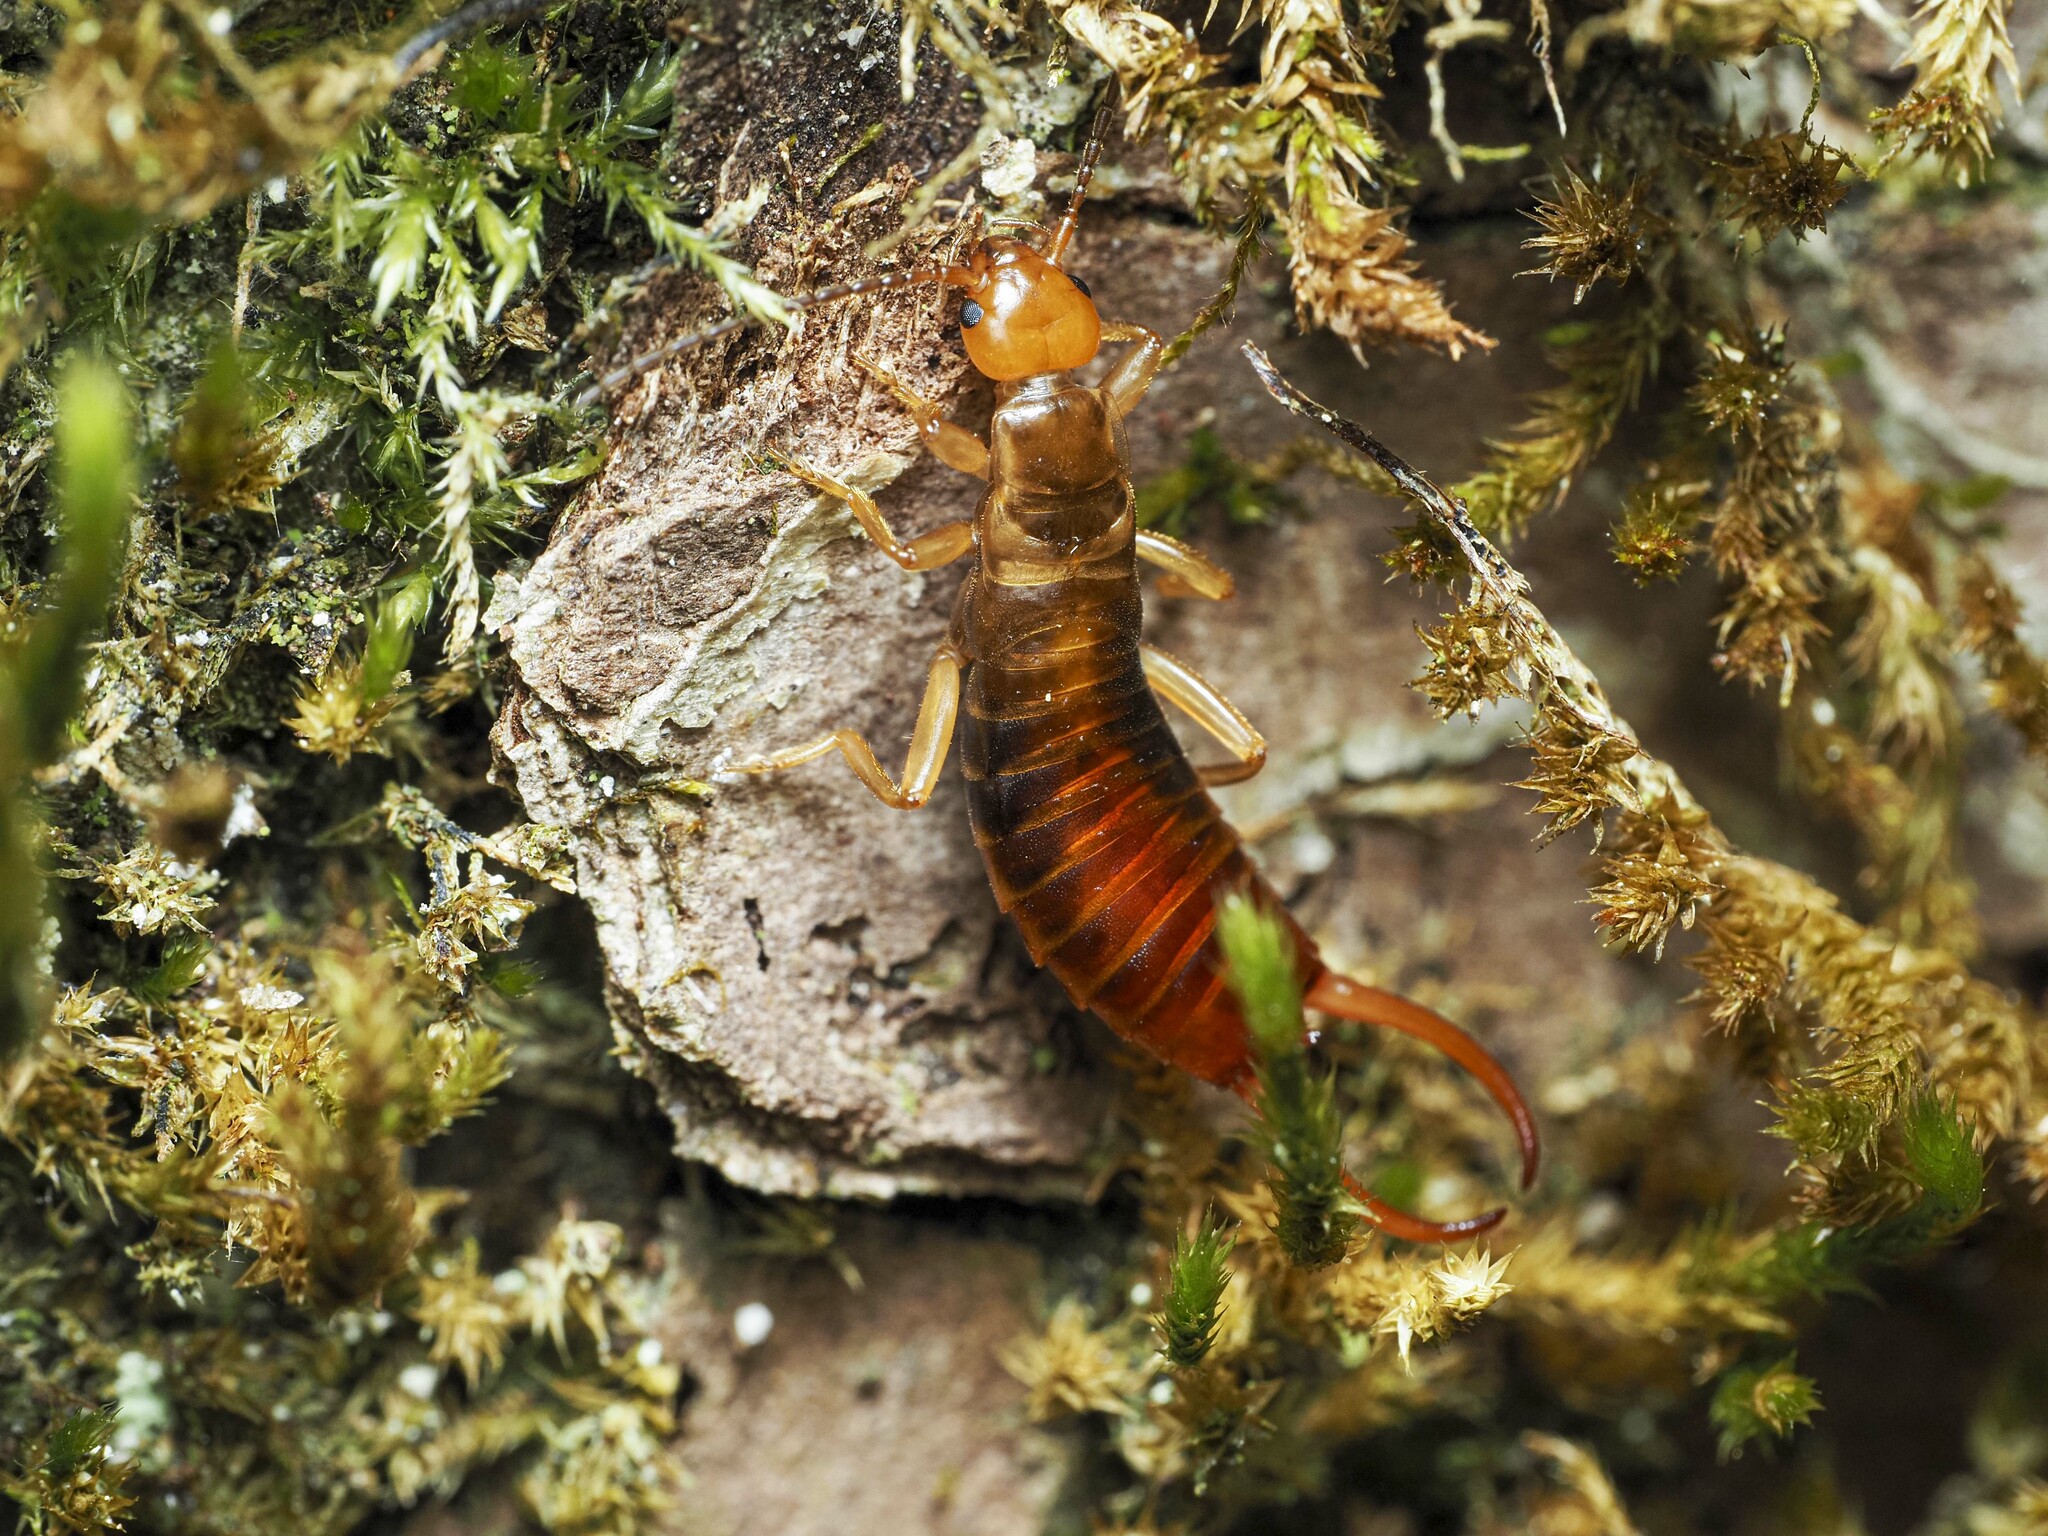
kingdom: Animalia
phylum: Arthropoda
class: Insecta
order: Dermaptera
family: Forficulidae
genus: Chelidurella
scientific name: Chelidurella acanthopygia
